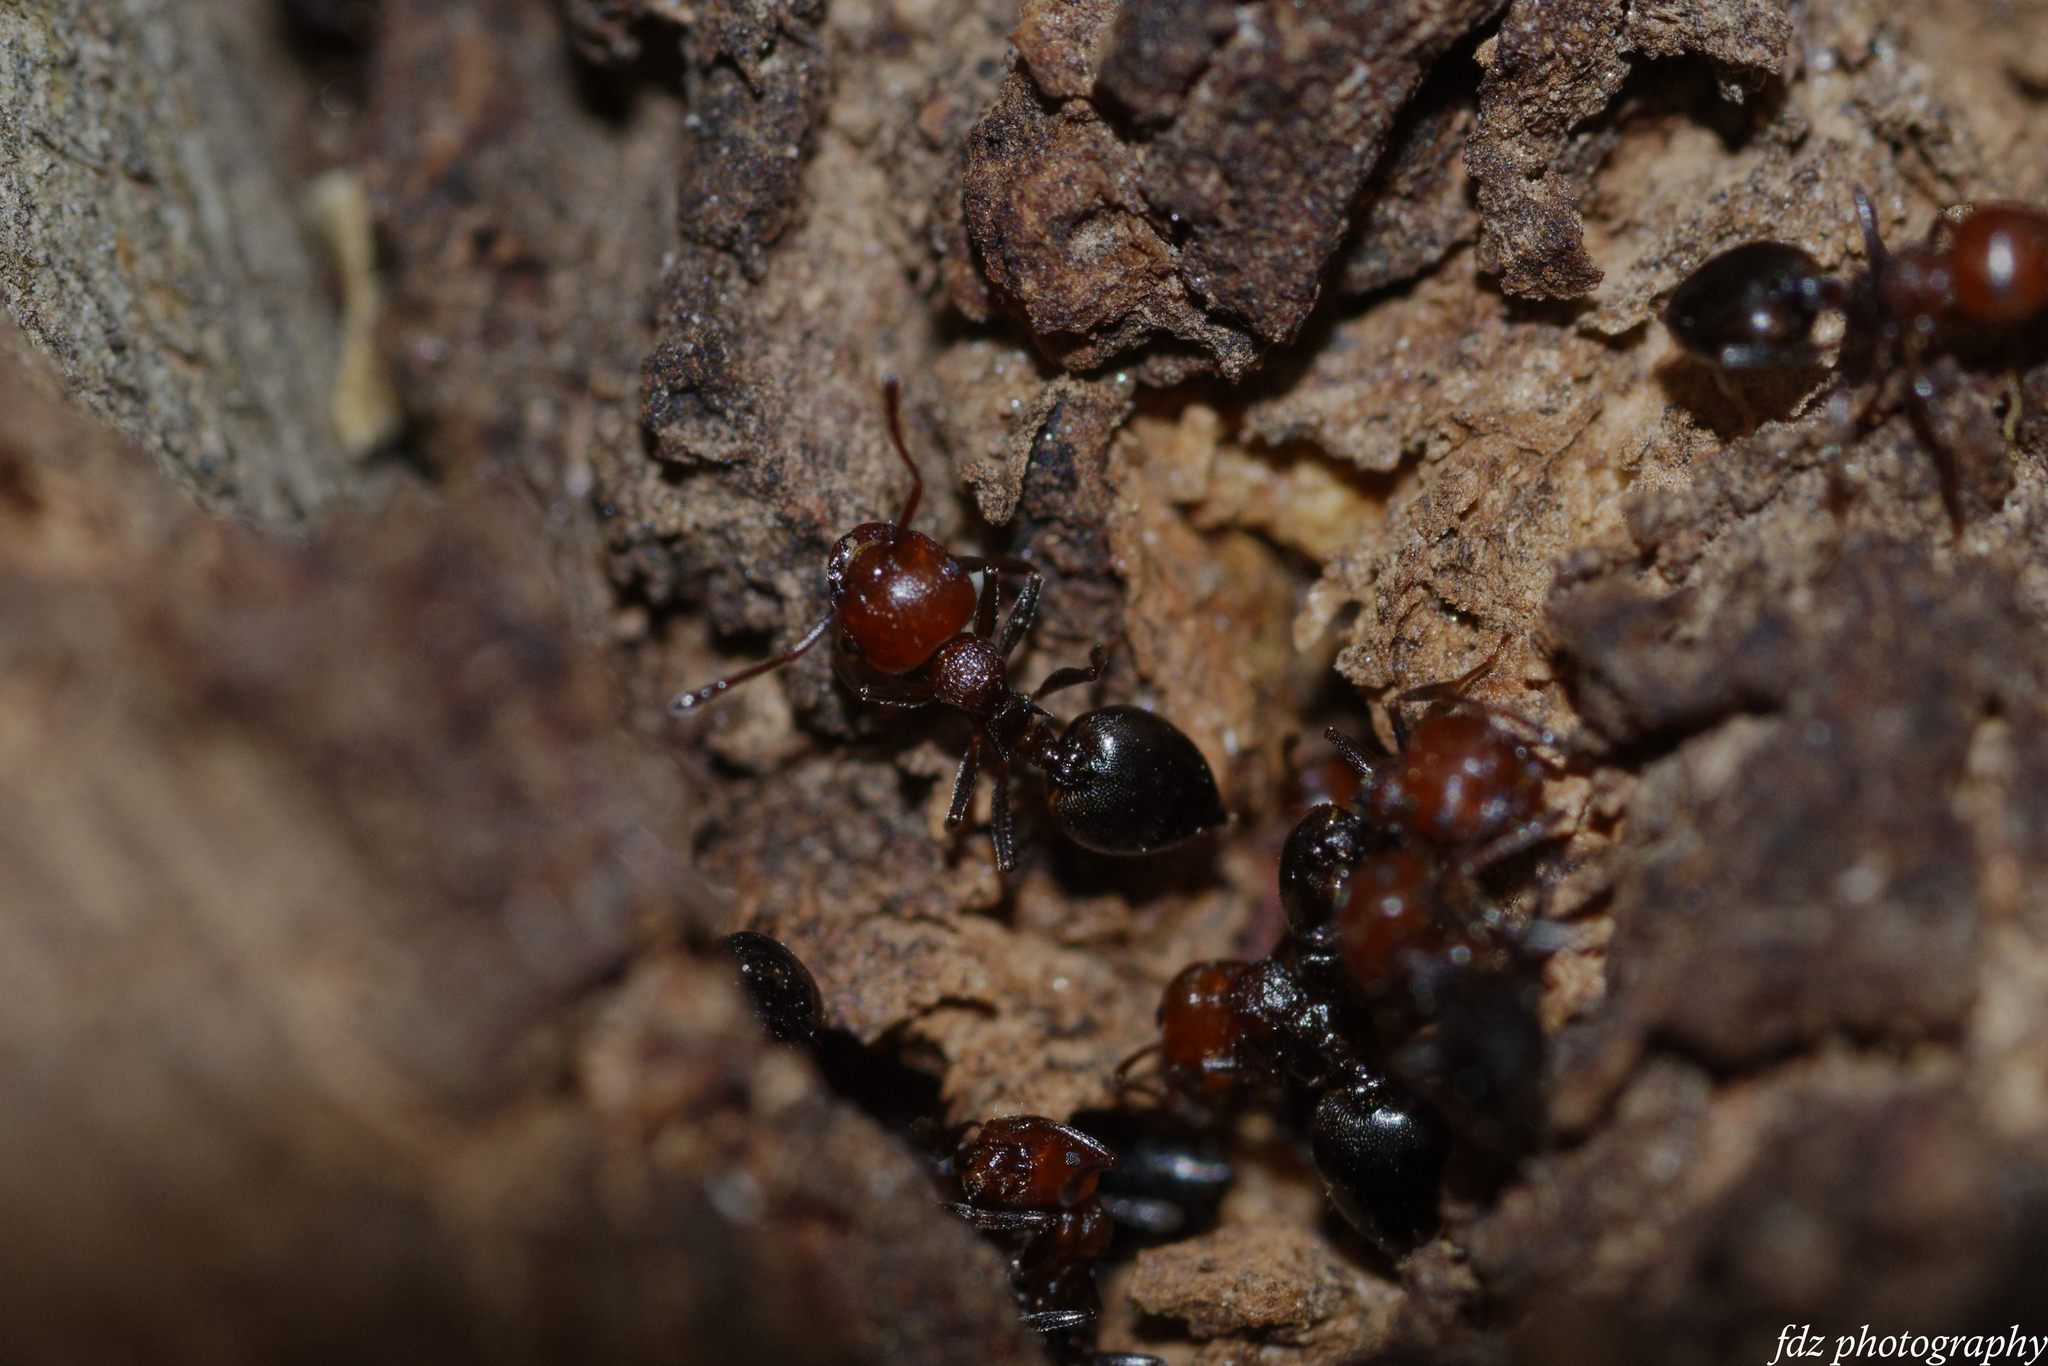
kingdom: Animalia
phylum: Arthropoda
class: Insecta
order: Hymenoptera
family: Formicidae
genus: Crematogaster
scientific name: Crematogaster scutellaris
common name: Fourmi du liège
